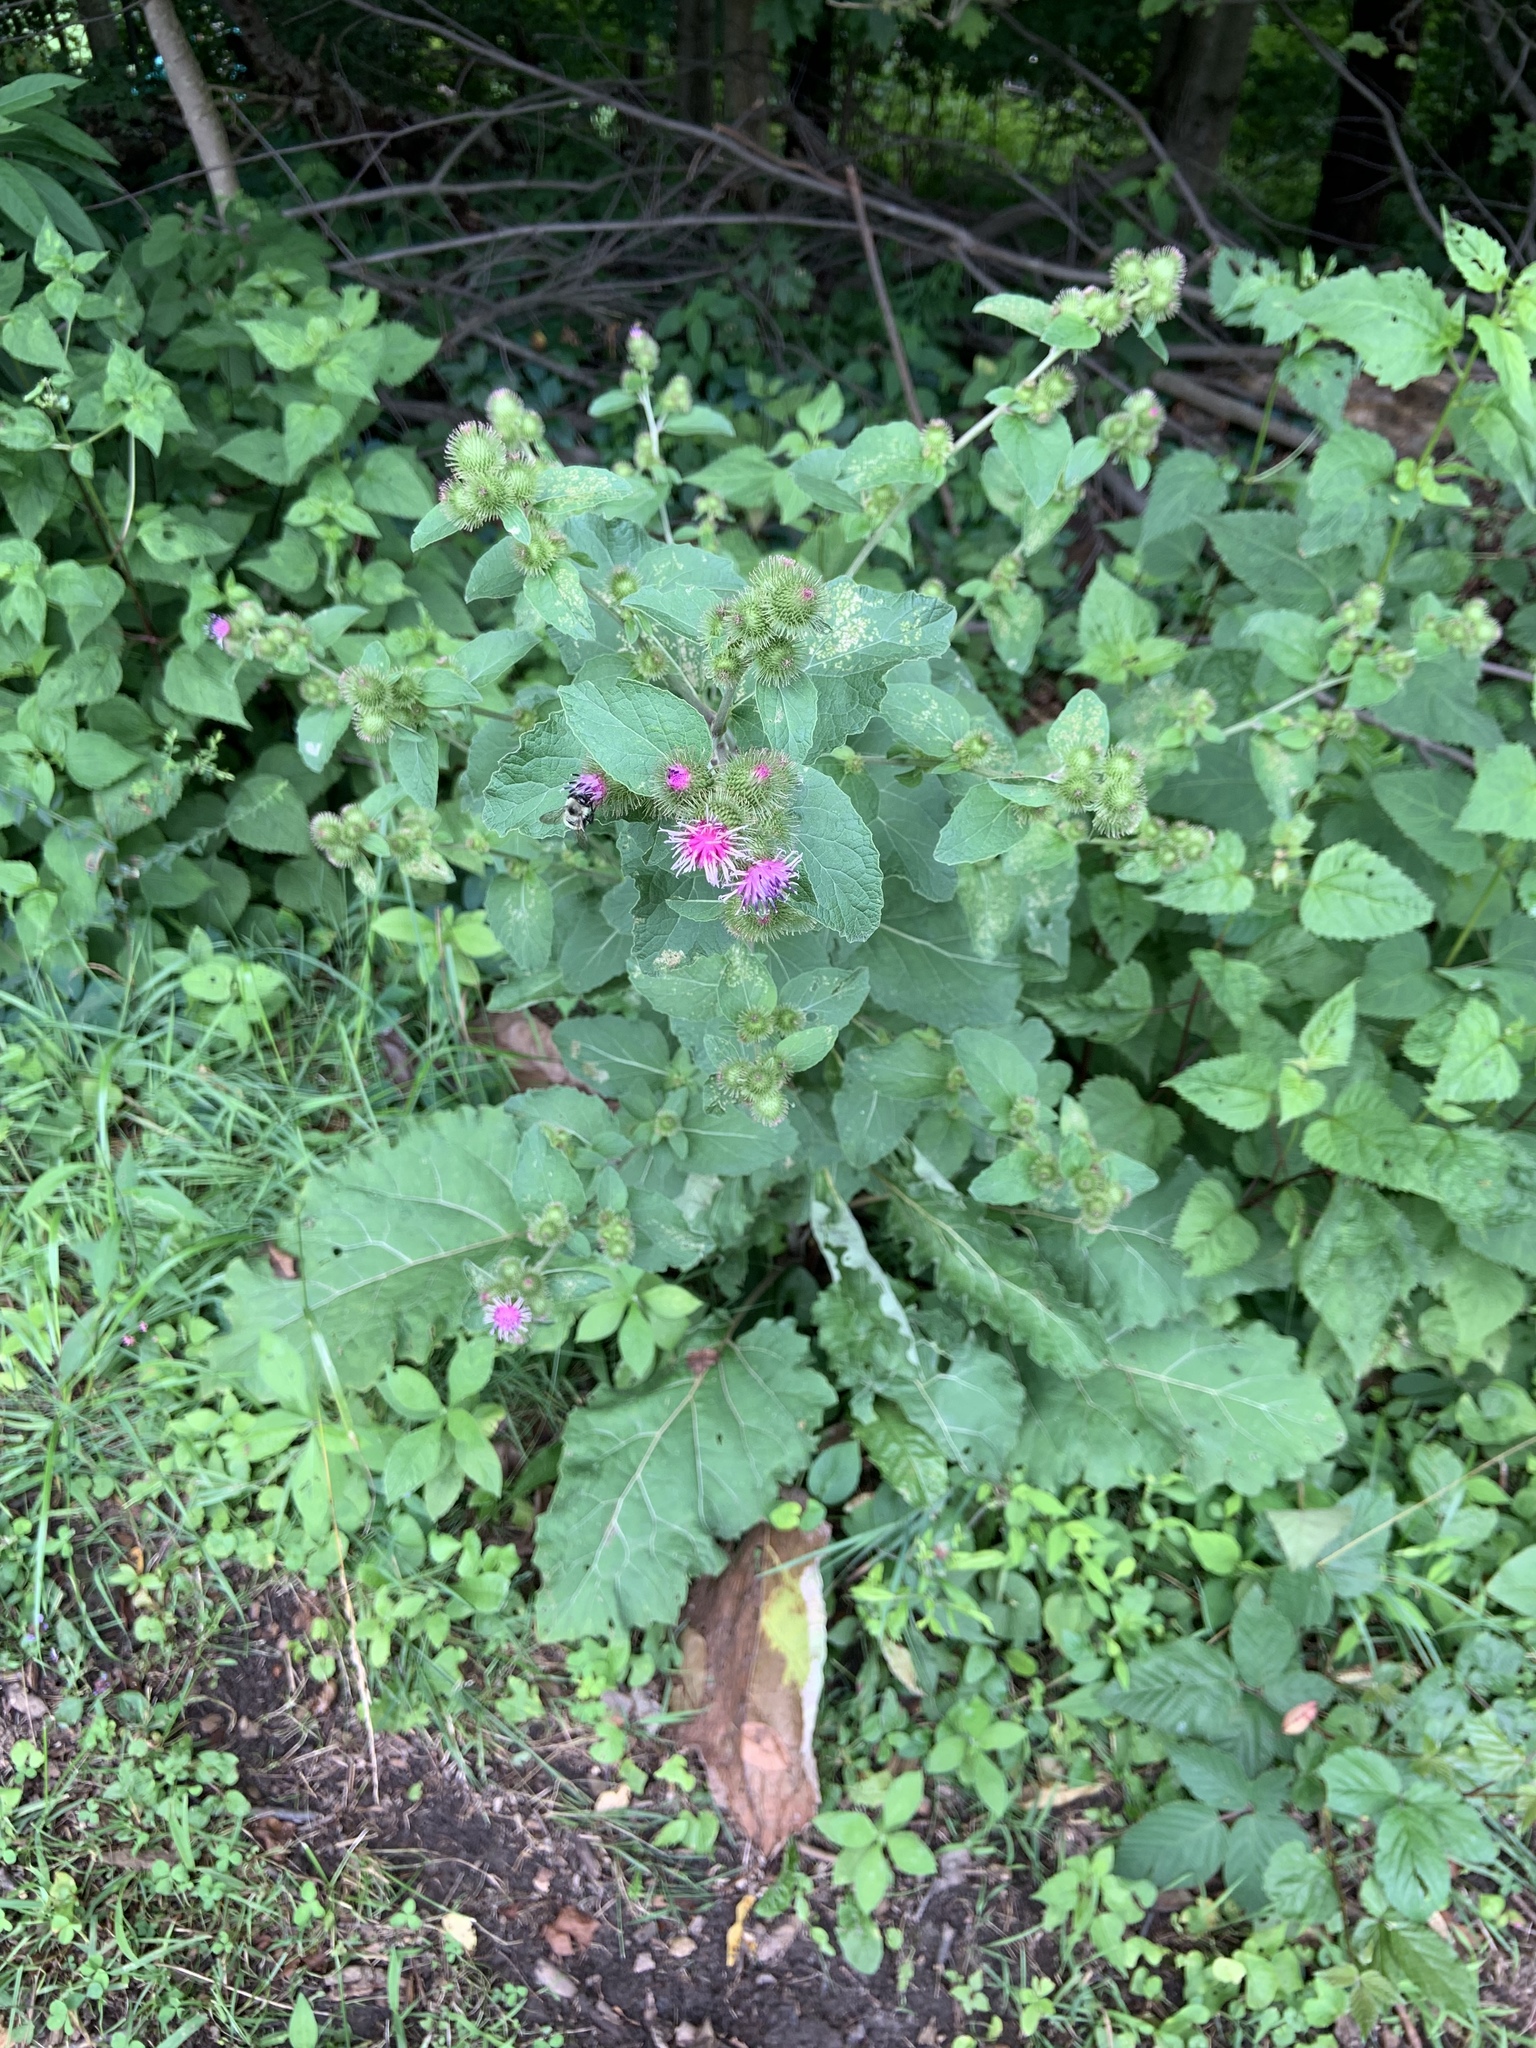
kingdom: Plantae
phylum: Tracheophyta
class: Magnoliopsida
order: Asterales
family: Asteraceae
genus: Arctium
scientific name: Arctium minus
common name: Lesser burdock
